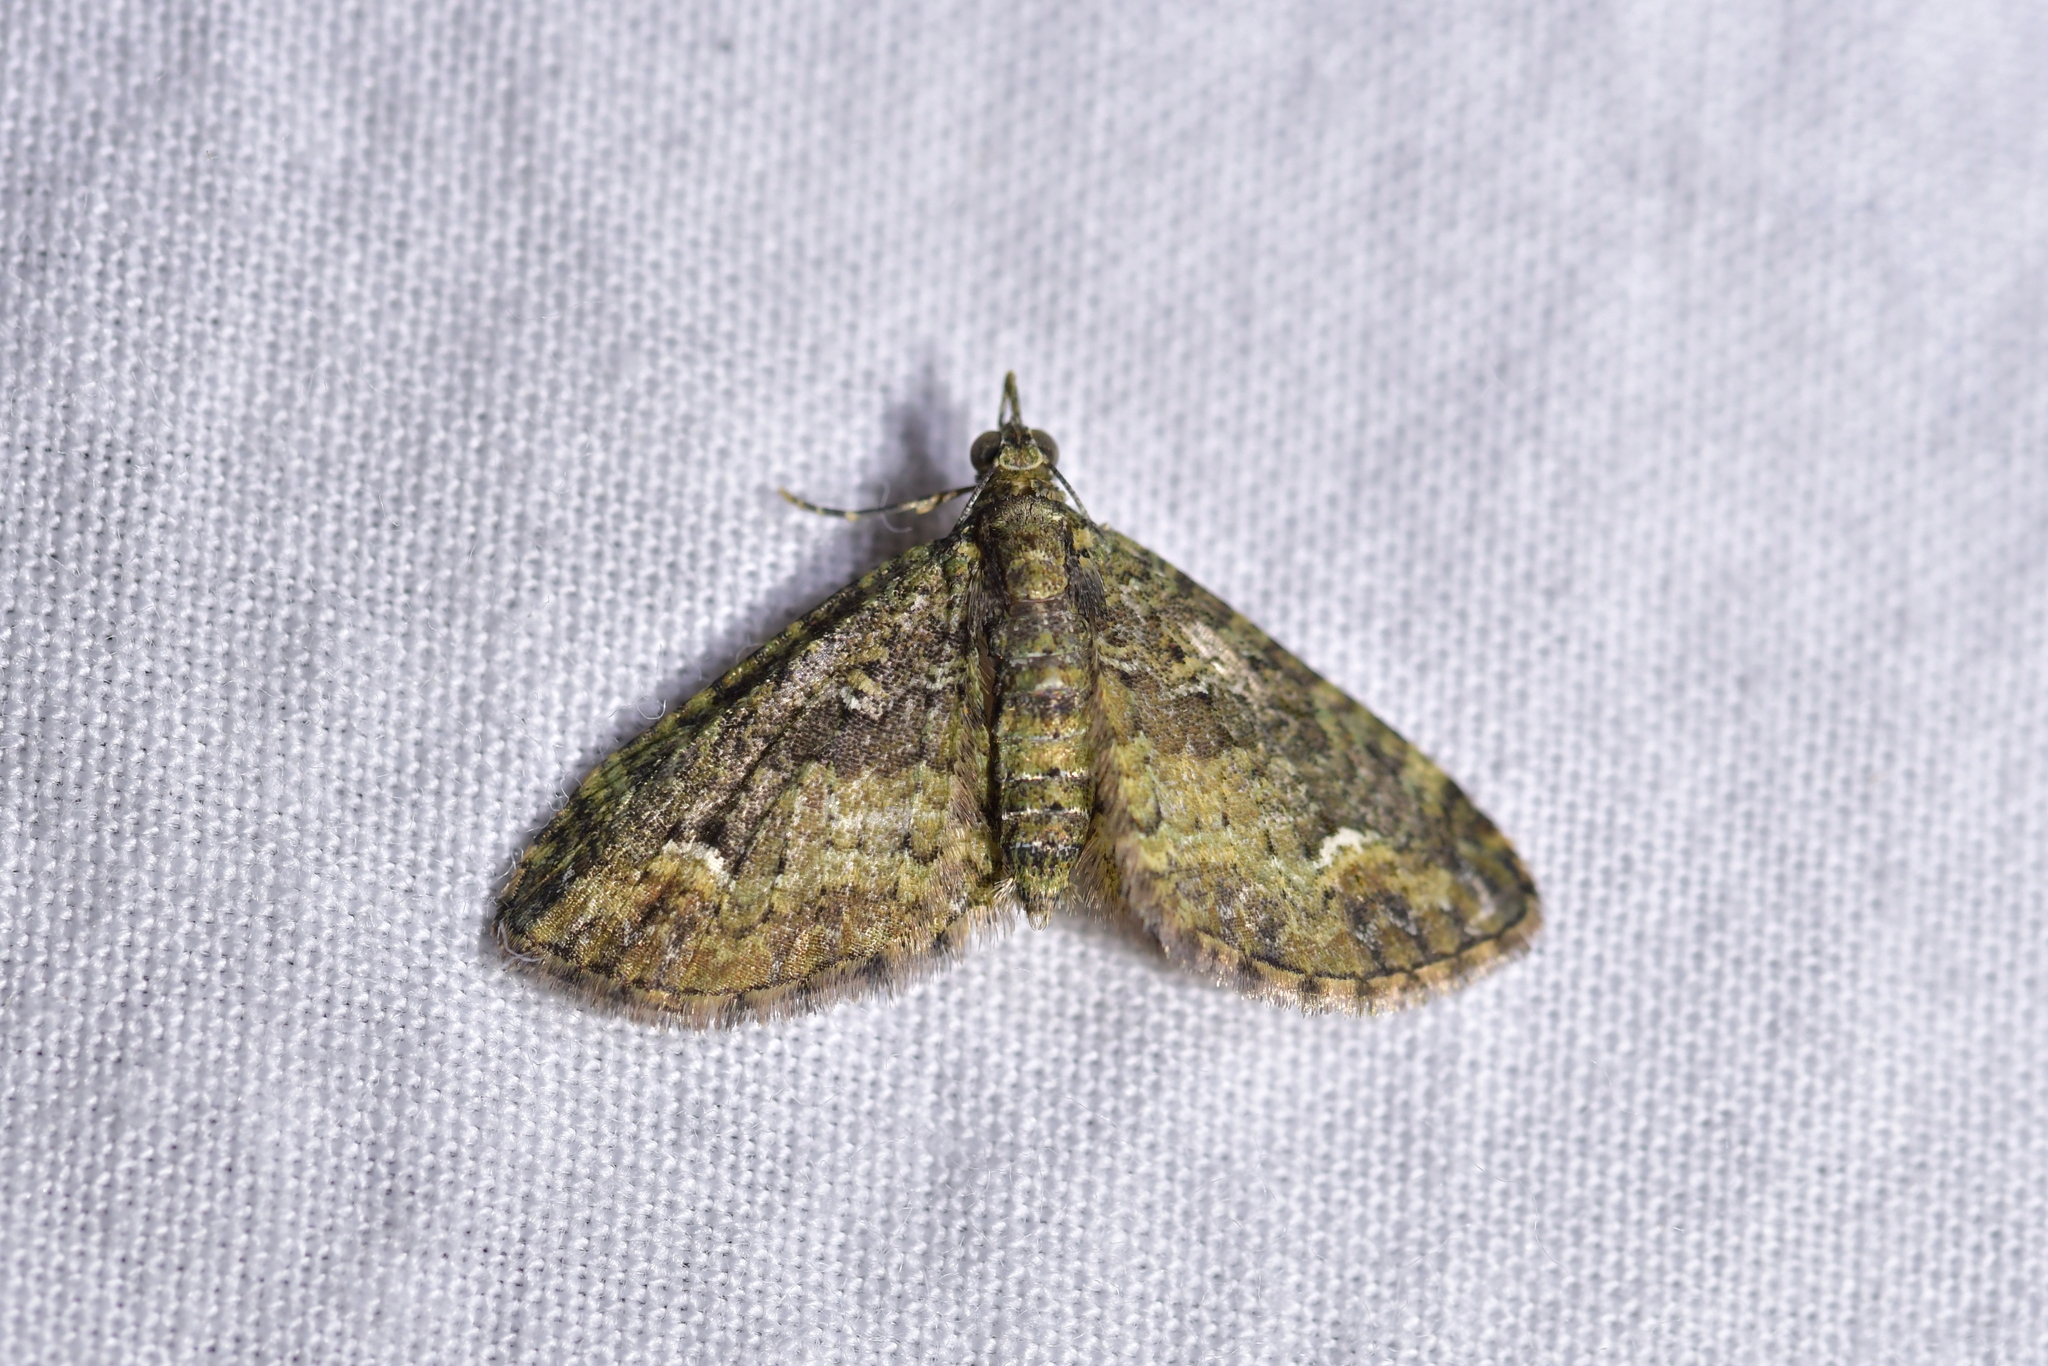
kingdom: Animalia
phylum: Arthropoda
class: Insecta
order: Lepidoptera
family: Geometridae
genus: Pasiphilodes
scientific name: Pasiphilodes testulata
